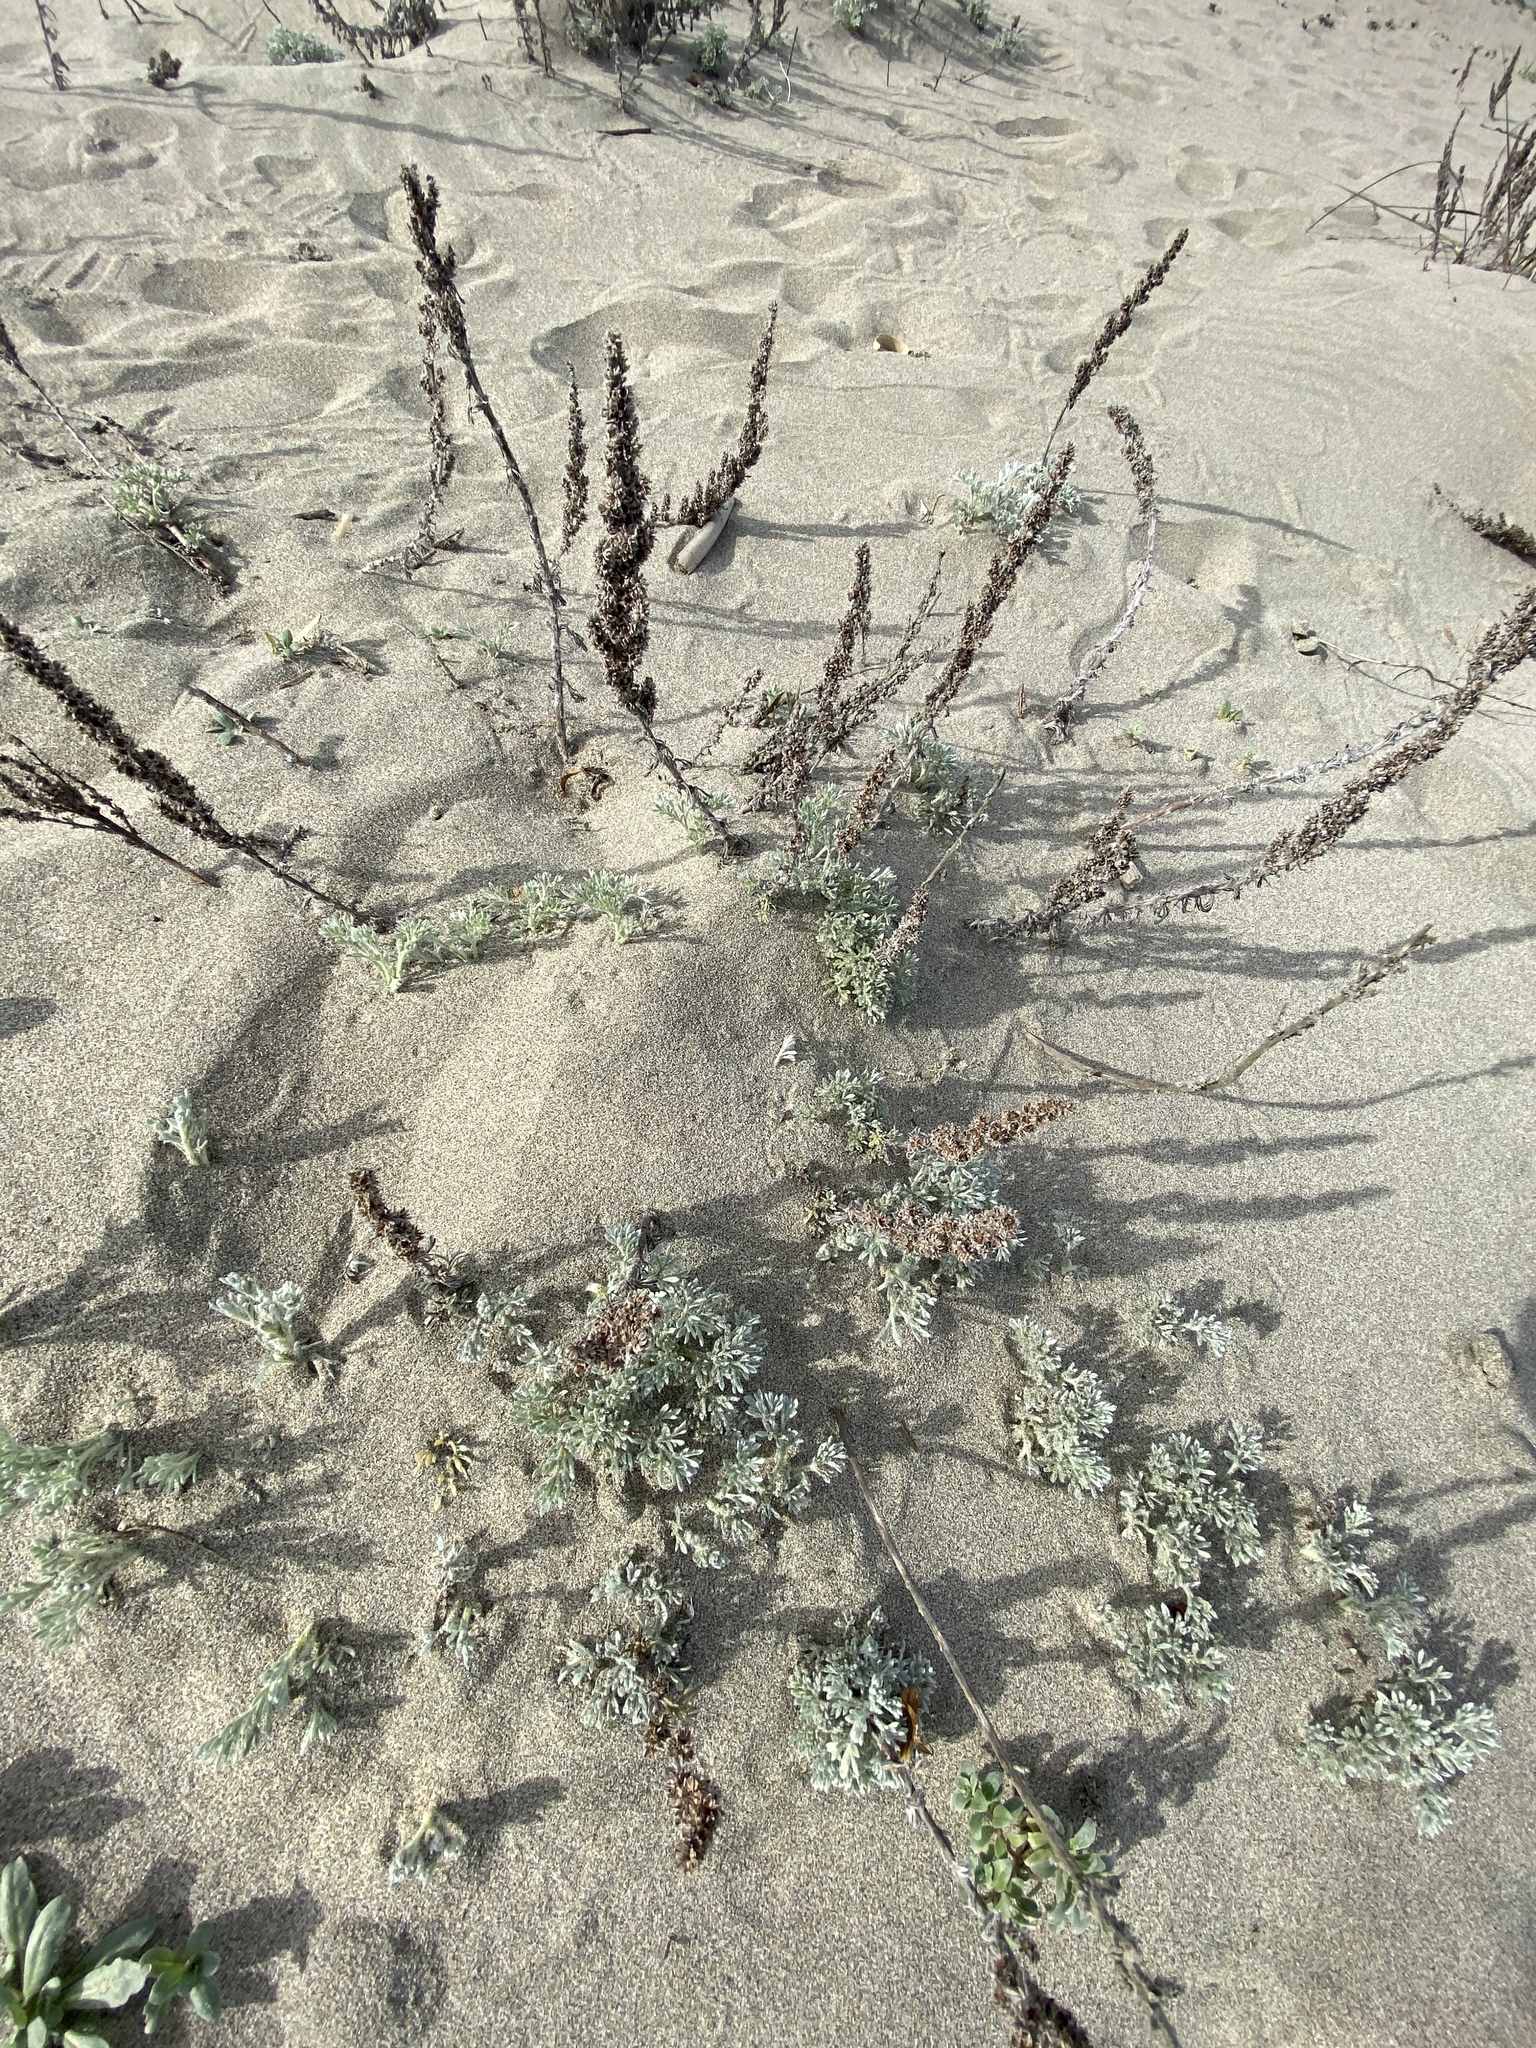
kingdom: Plantae
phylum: Tracheophyta
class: Magnoliopsida
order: Asterales
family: Asteraceae
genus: Artemisia
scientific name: Artemisia pycnocephala
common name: Coastal sagewort
